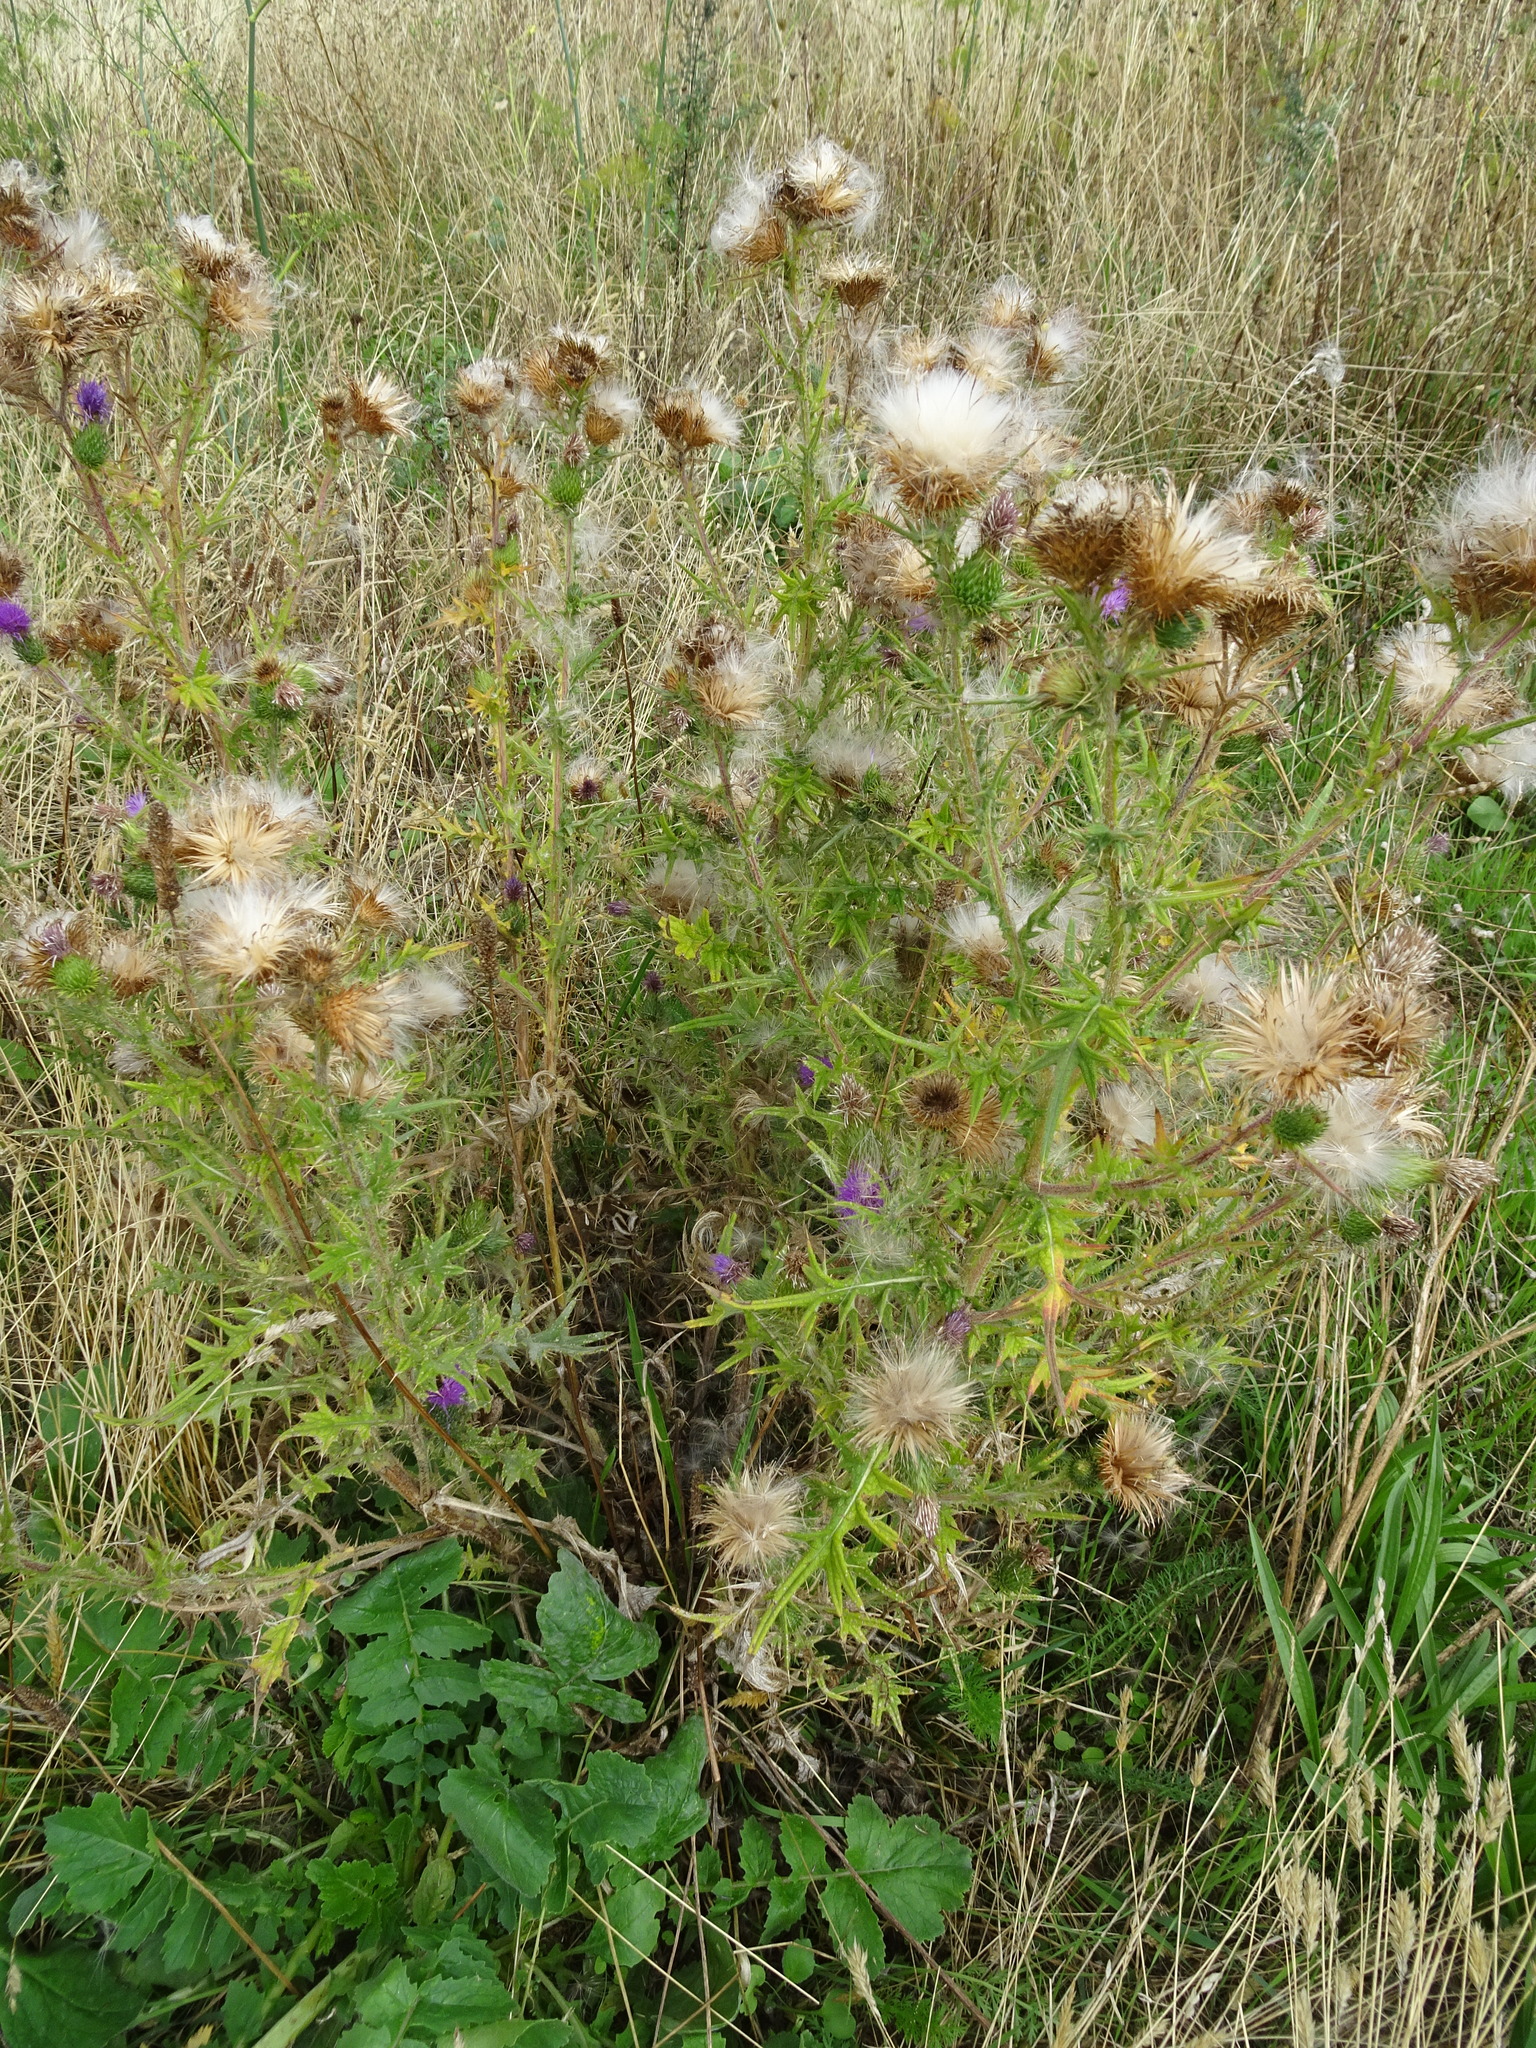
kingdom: Plantae
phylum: Tracheophyta
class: Magnoliopsida
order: Asterales
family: Asteraceae
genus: Cirsium
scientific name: Cirsium vulgare
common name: Bull thistle
